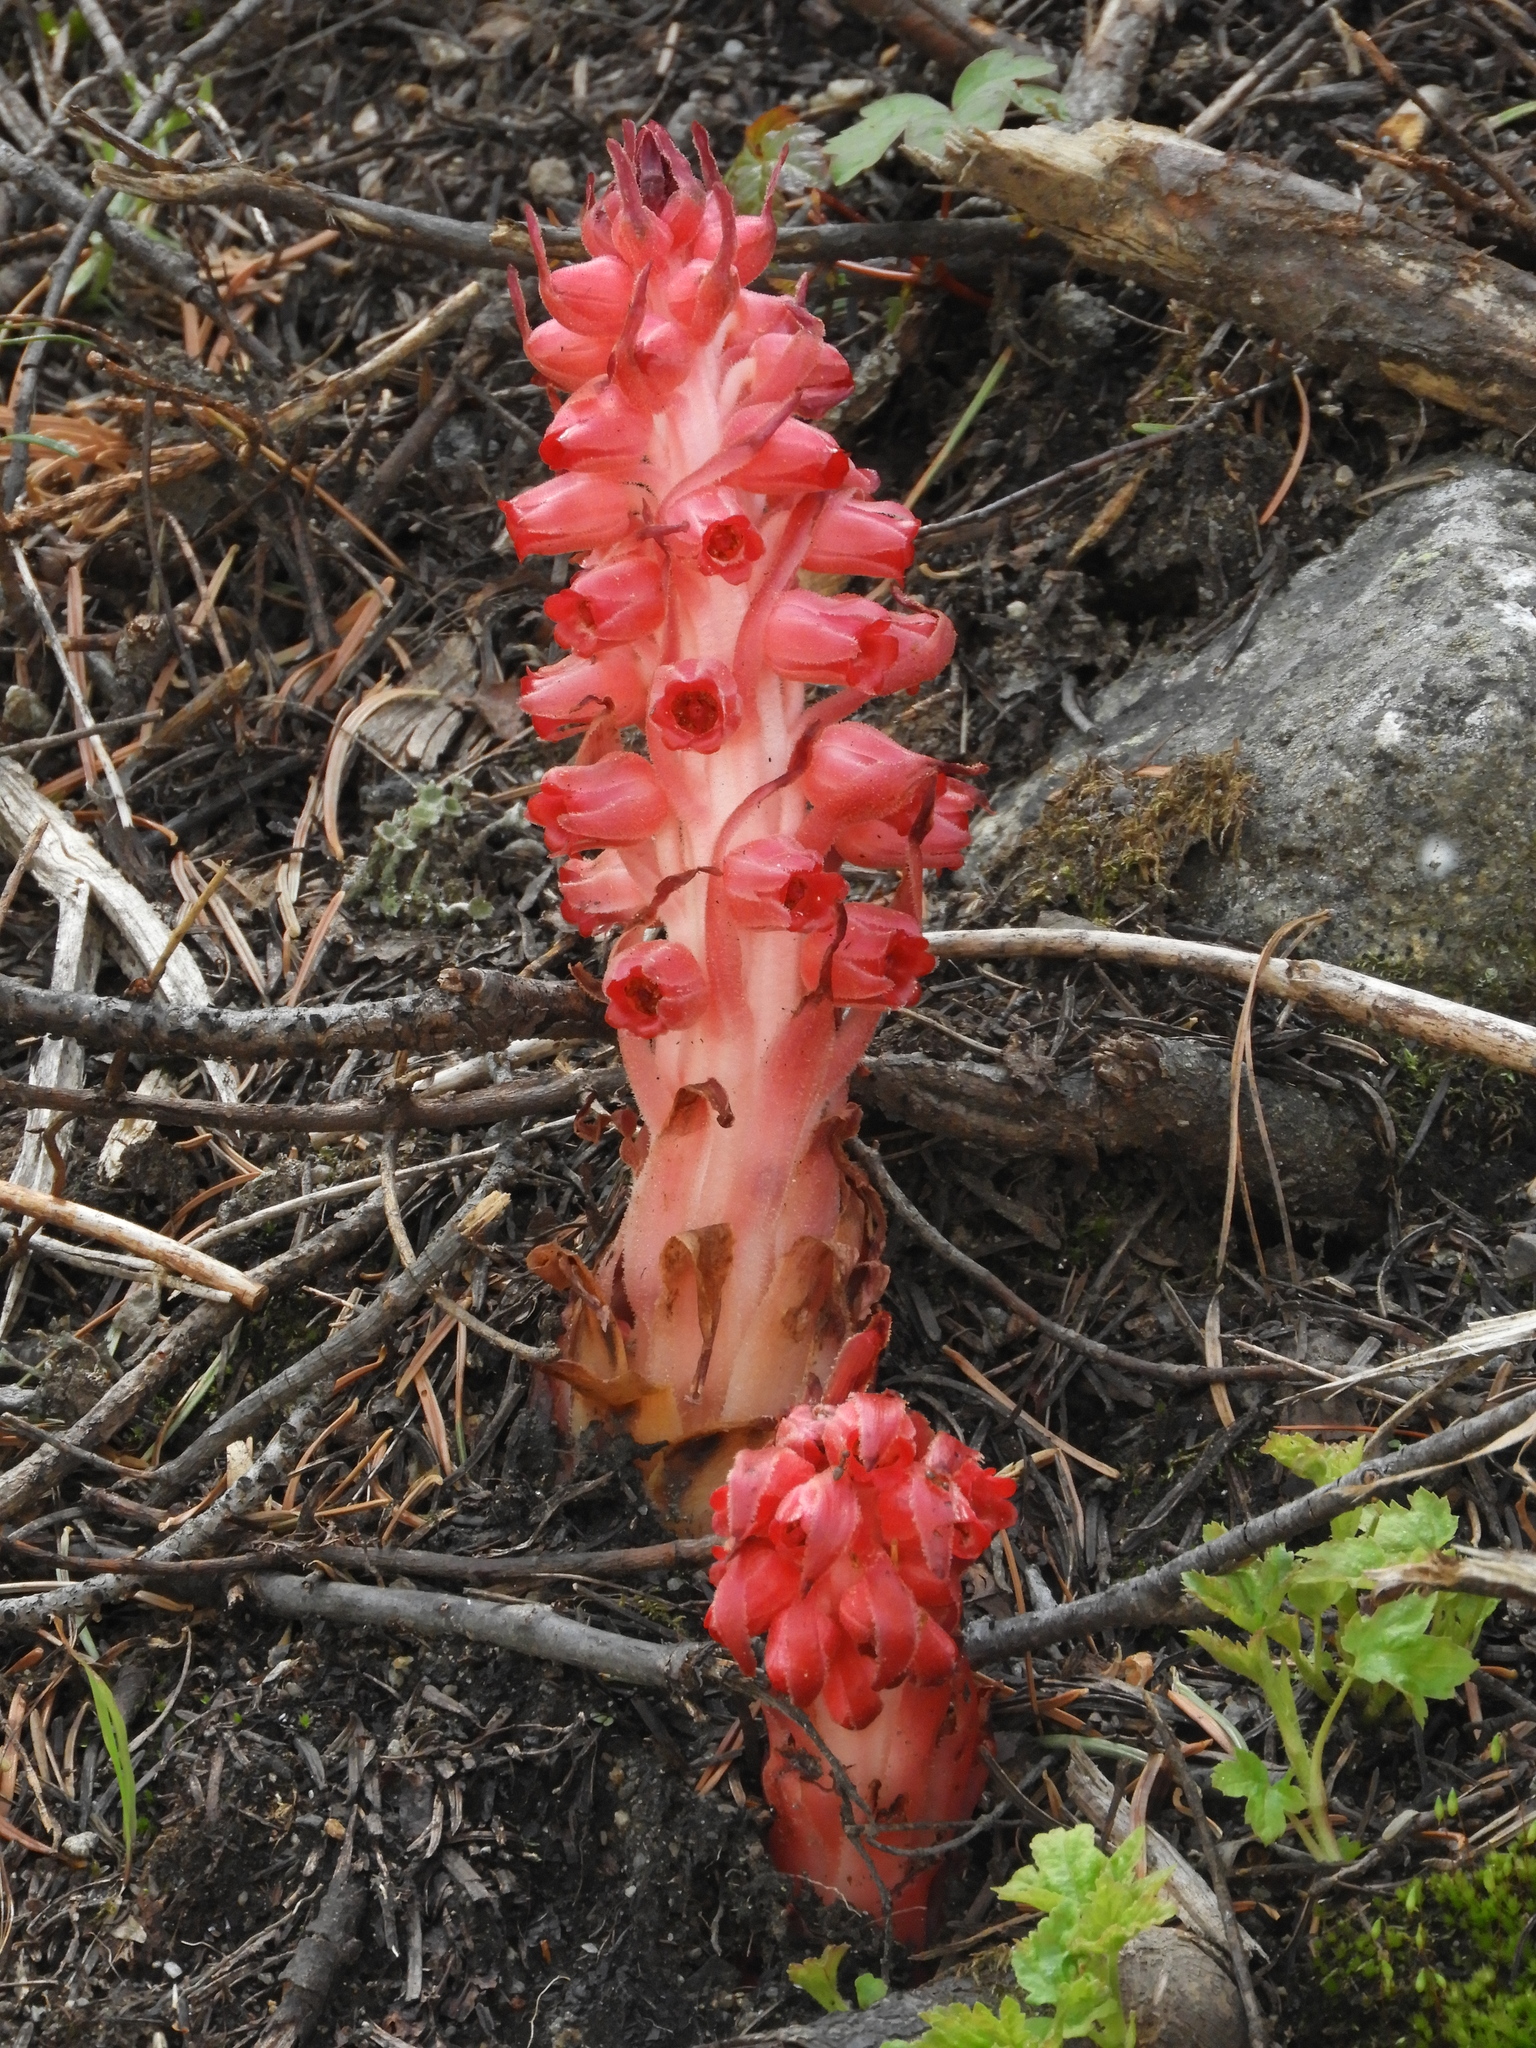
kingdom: Plantae
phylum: Tracheophyta
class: Magnoliopsida
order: Ericales
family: Ericaceae
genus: Sarcodes
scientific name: Sarcodes sanguinea
